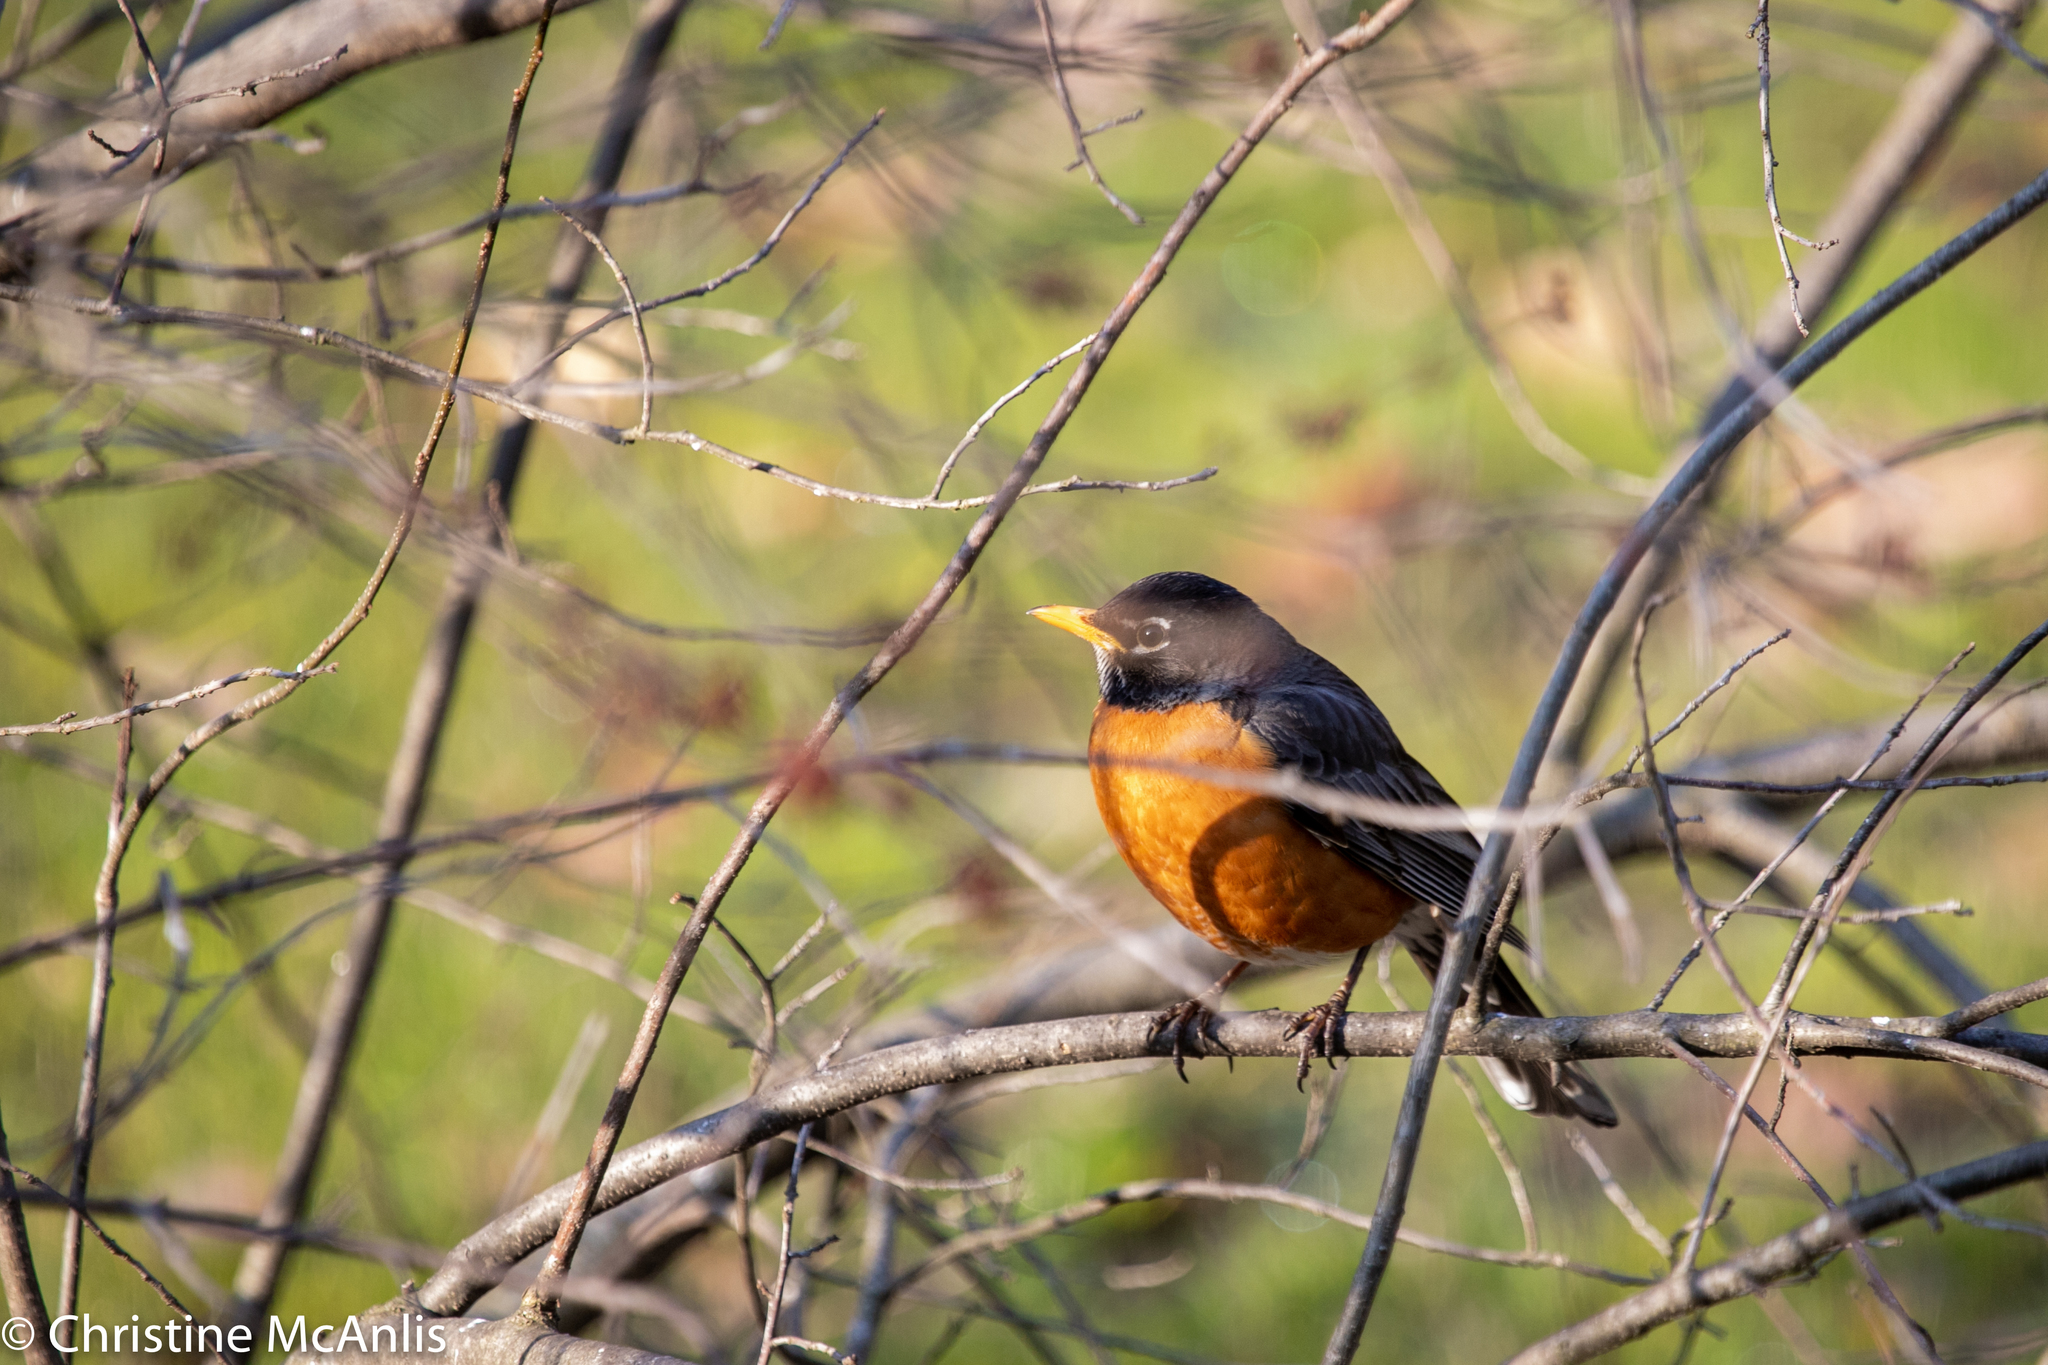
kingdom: Animalia
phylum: Chordata
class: Aves
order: Passeriformes
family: Turdidae
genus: Turdus
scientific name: Turdus migratorius
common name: American robin
